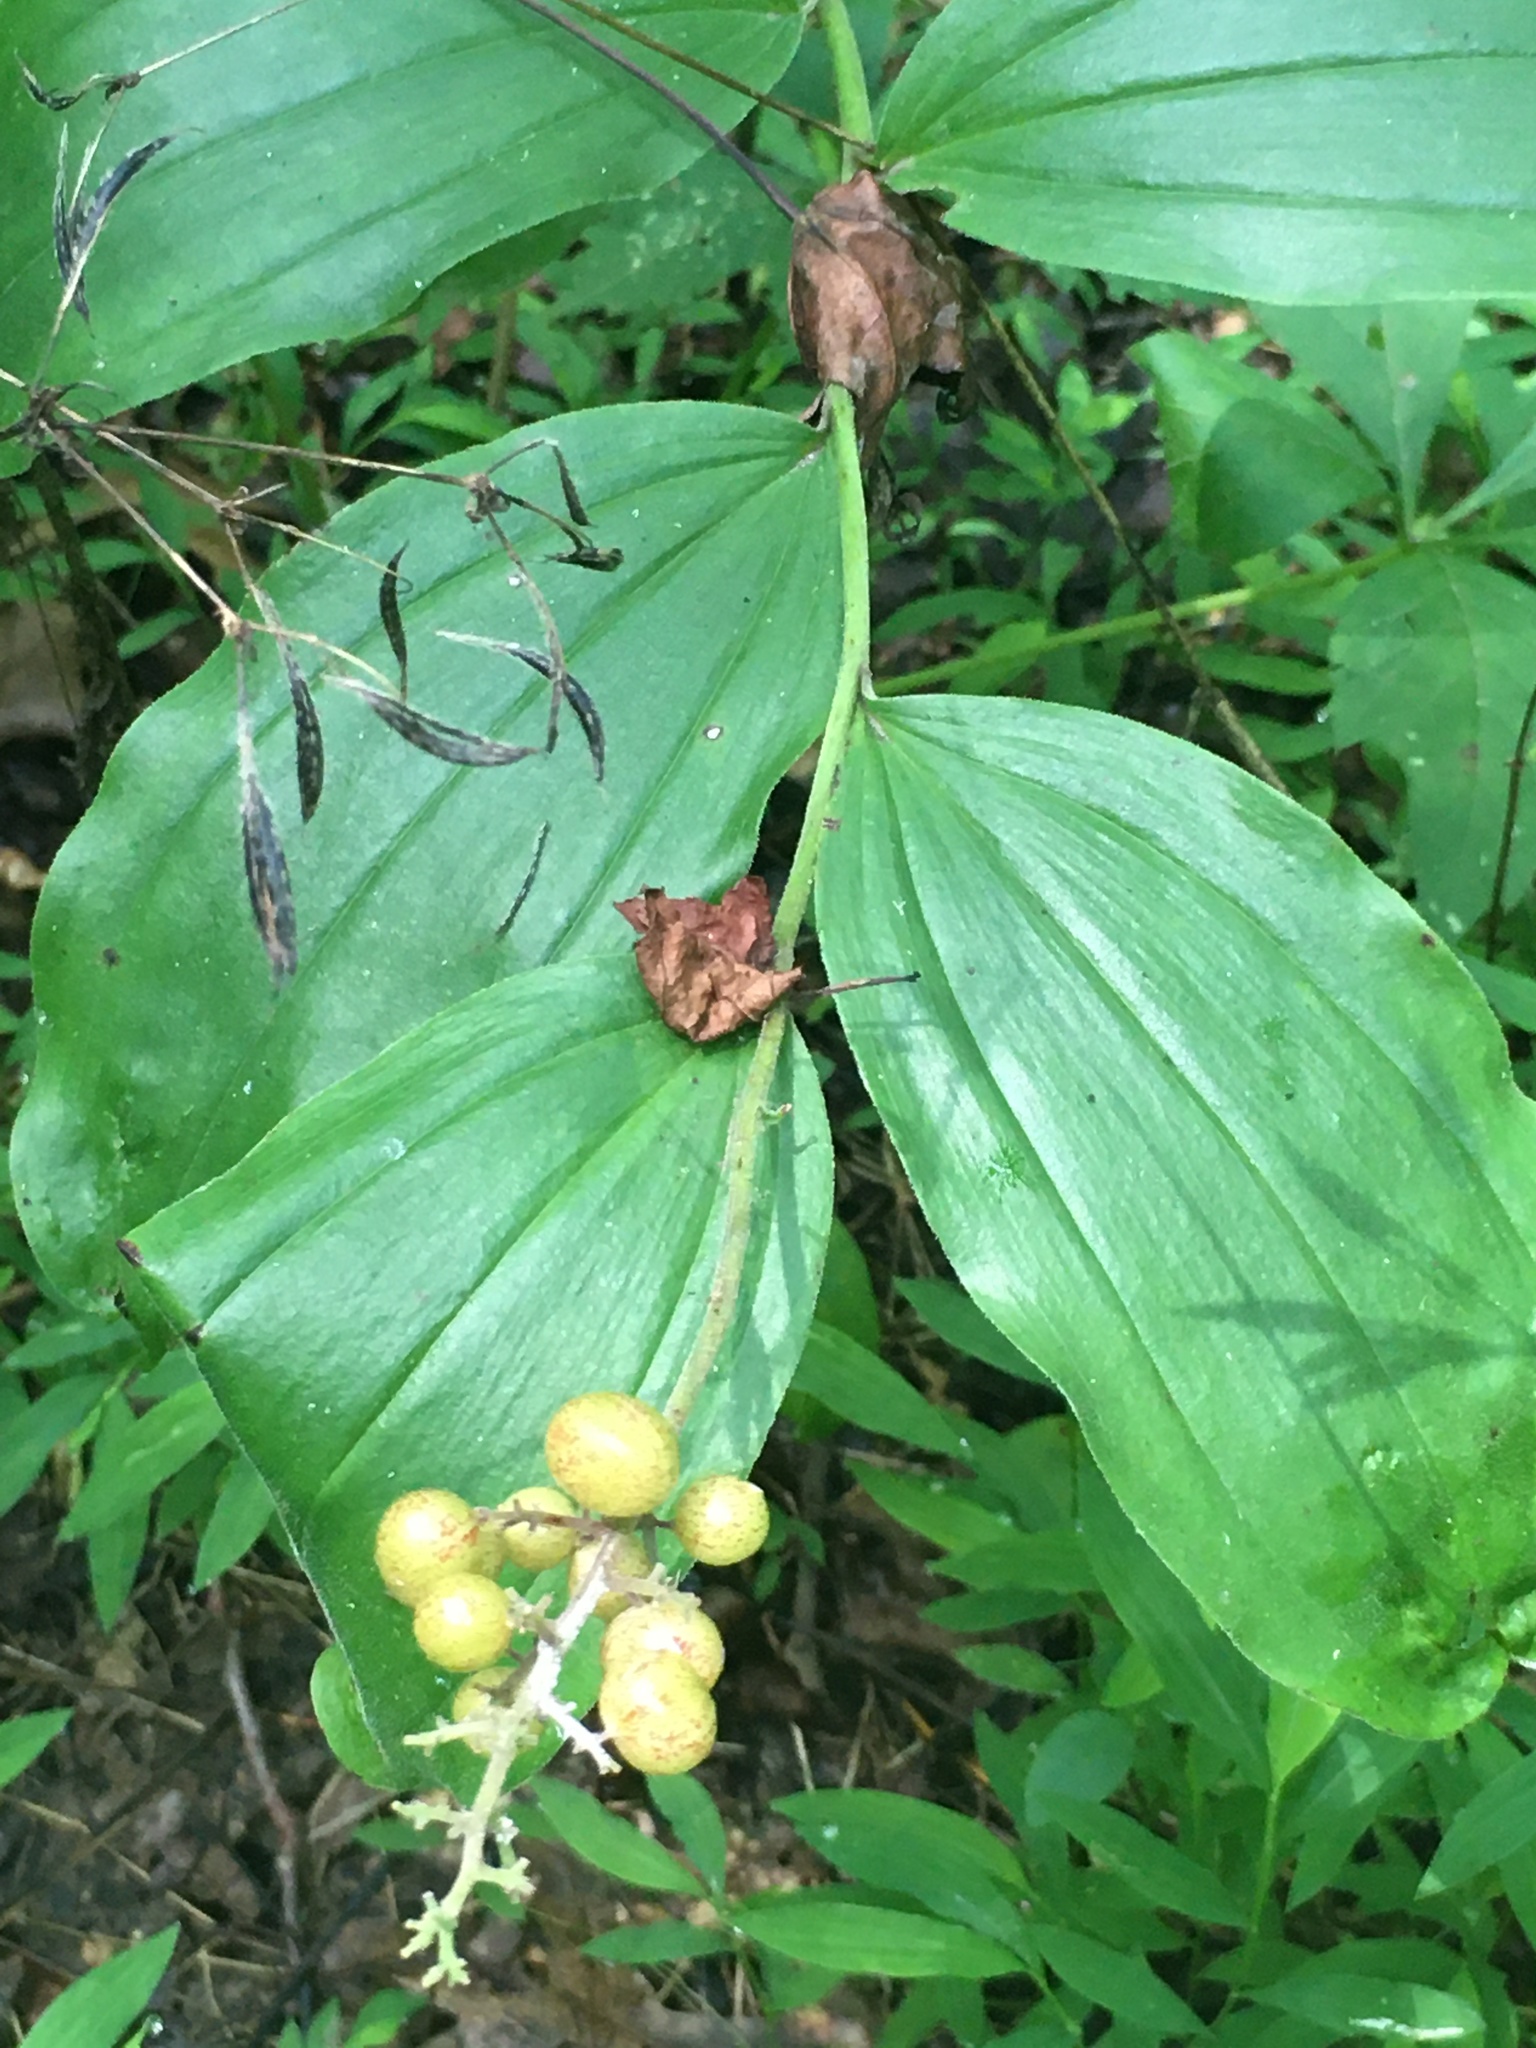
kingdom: Plantae
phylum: Tracheophyta
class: Liliopsida
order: Asparagales
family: Asparagaceae
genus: Maianthemum
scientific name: Maianthemum racemosum
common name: False spikenard
